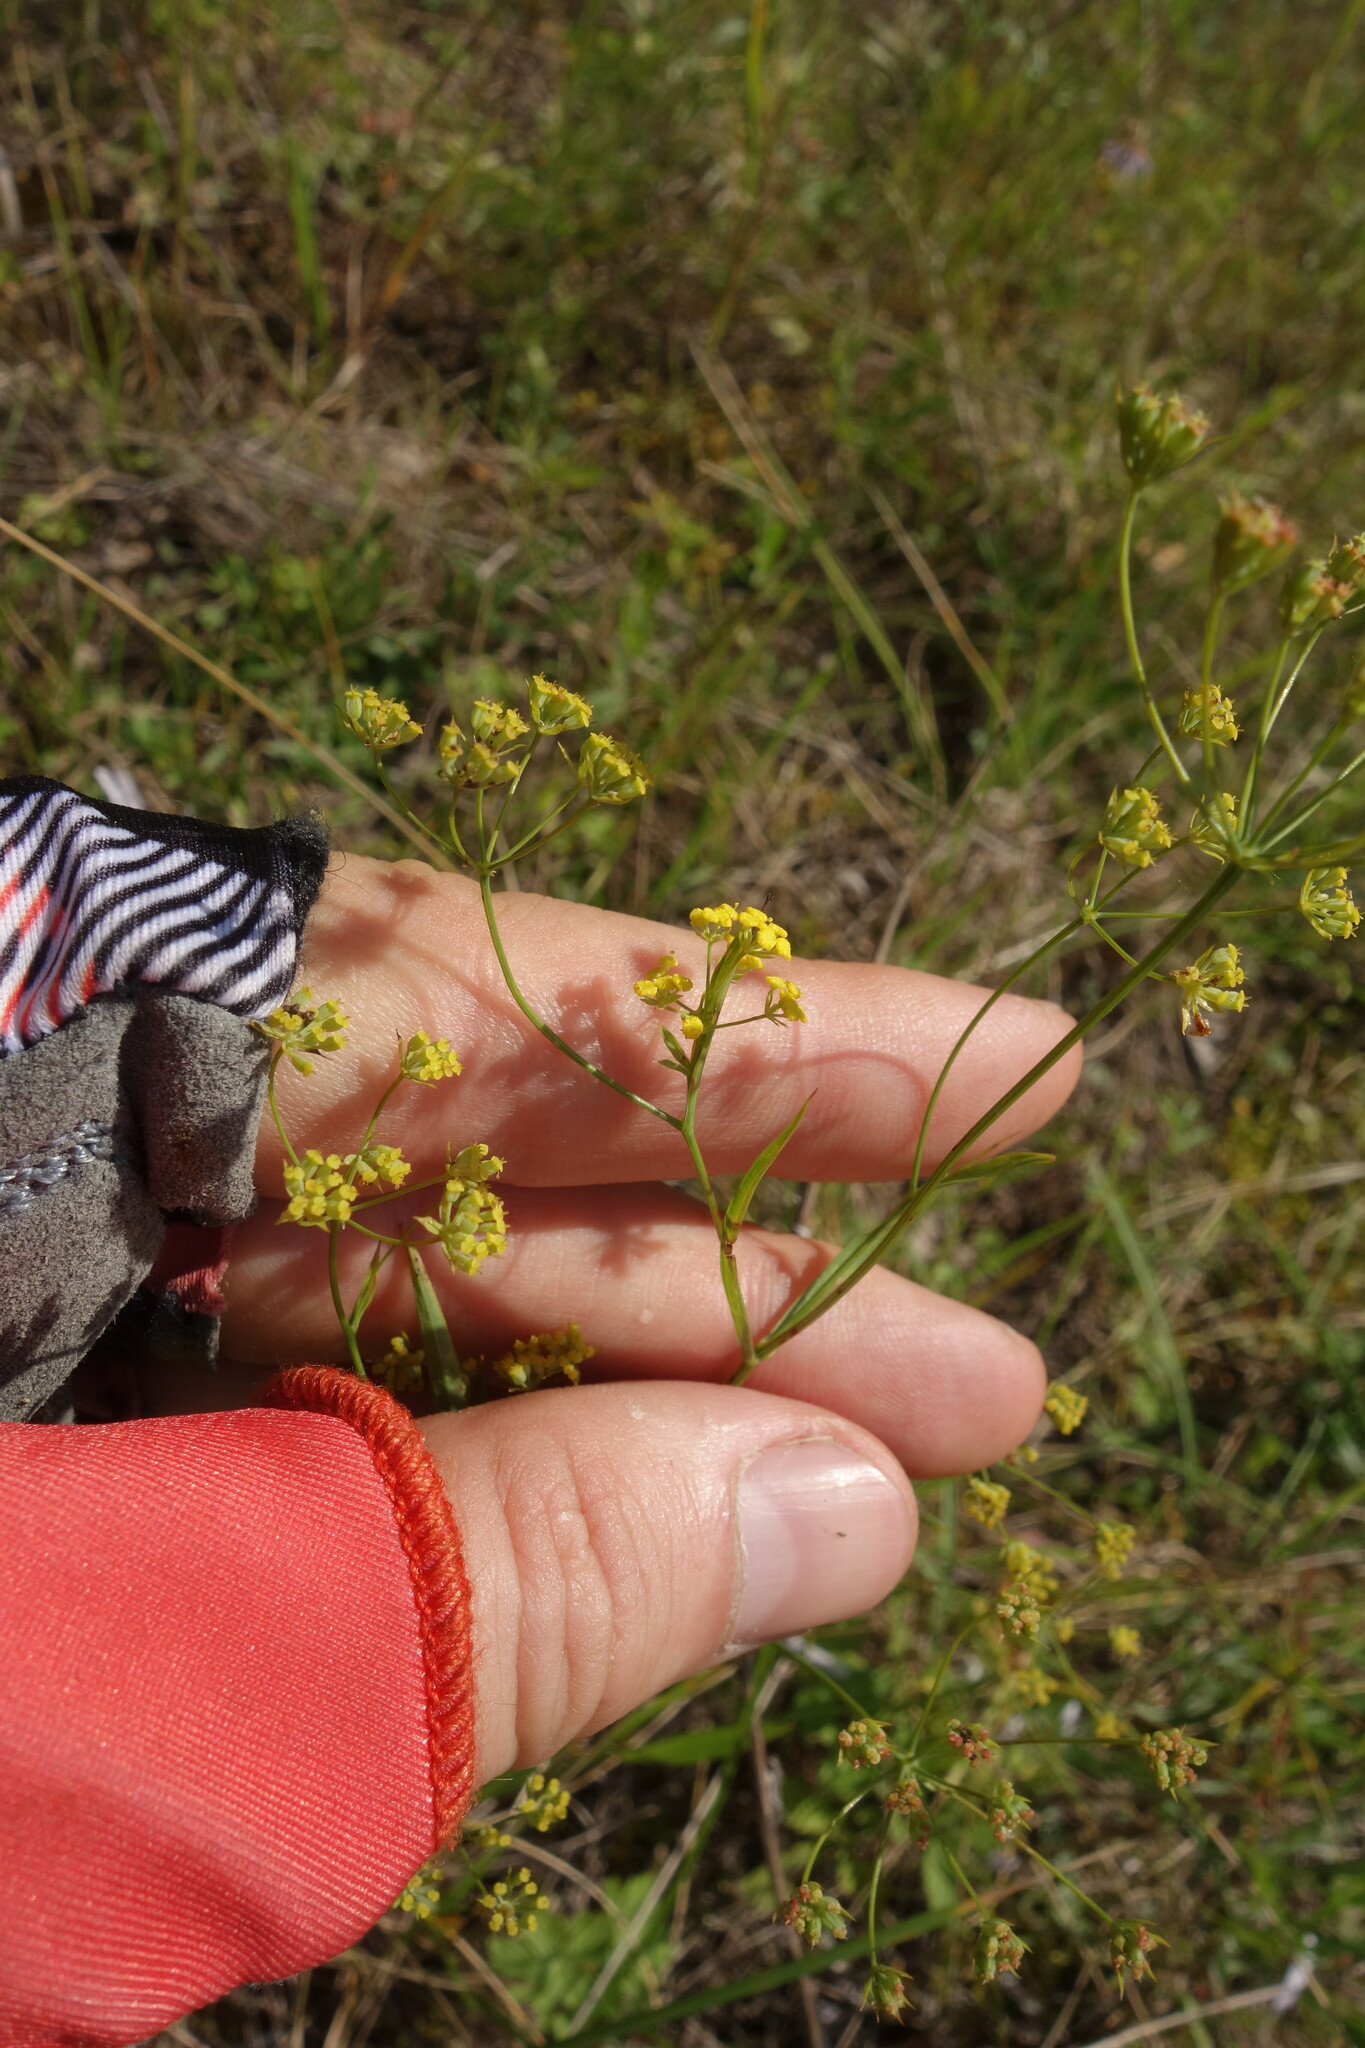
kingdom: Plantae
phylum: Tracheophyta
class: Magnoliopsida
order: Apiales
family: Apiaceae
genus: Bupleurum
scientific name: Bupleurum scorzonerifolium
